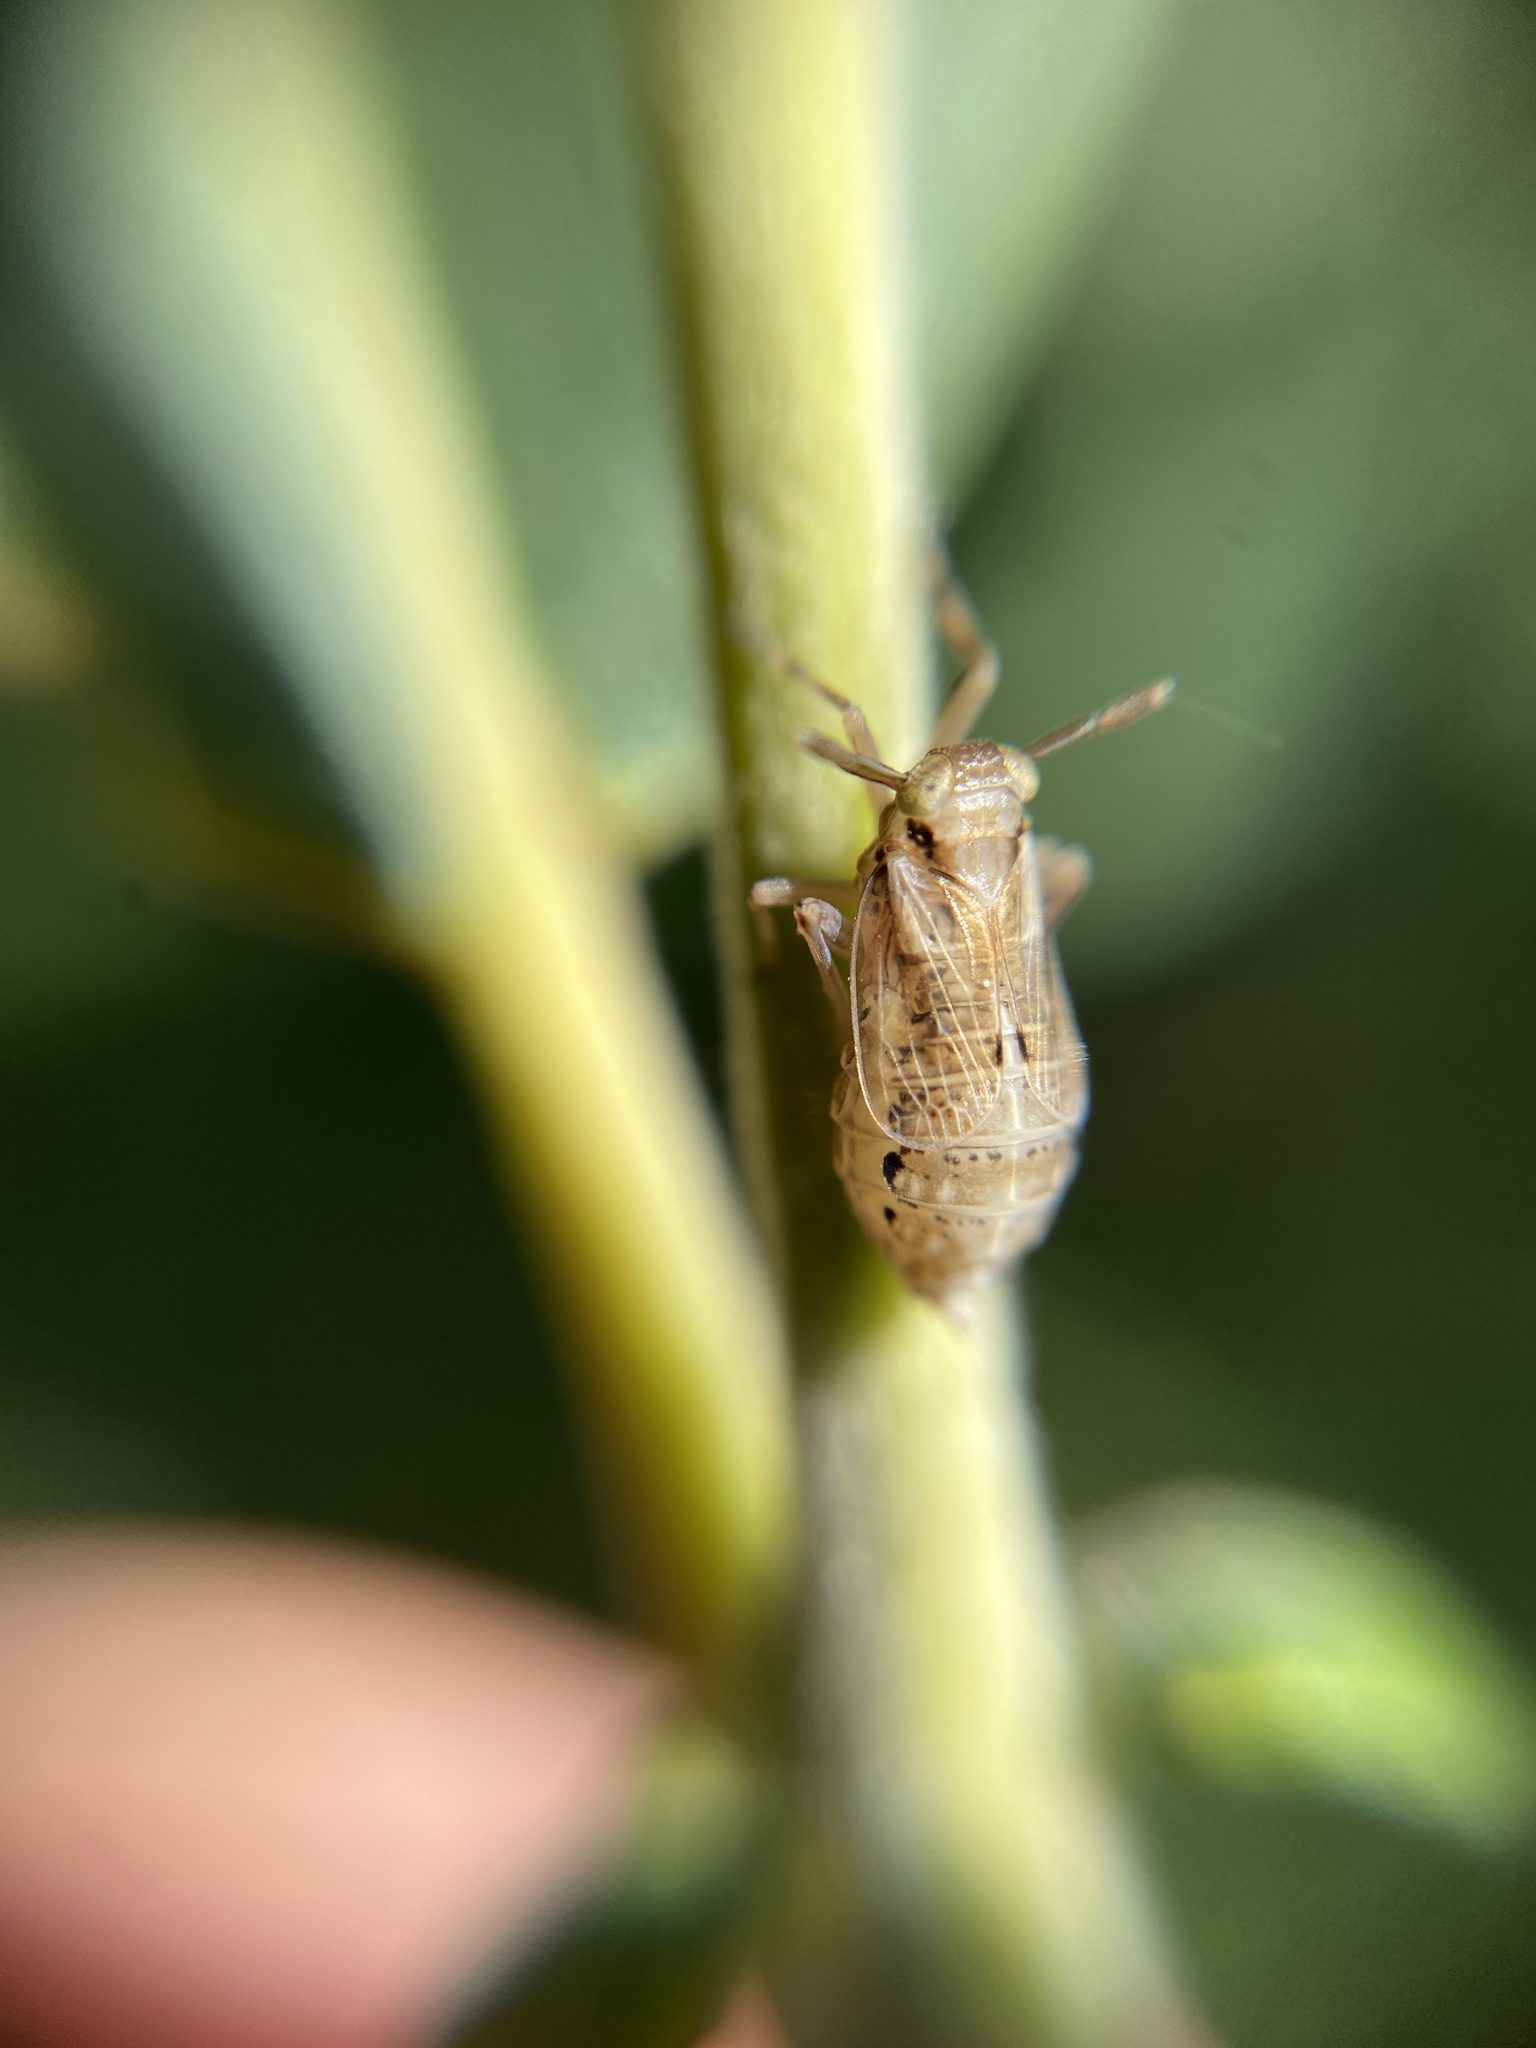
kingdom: Animalia
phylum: Arthropoda
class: Insecta
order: Hemiptera
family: Delphacidae
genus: Delphax
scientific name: Delphax crassicornis
